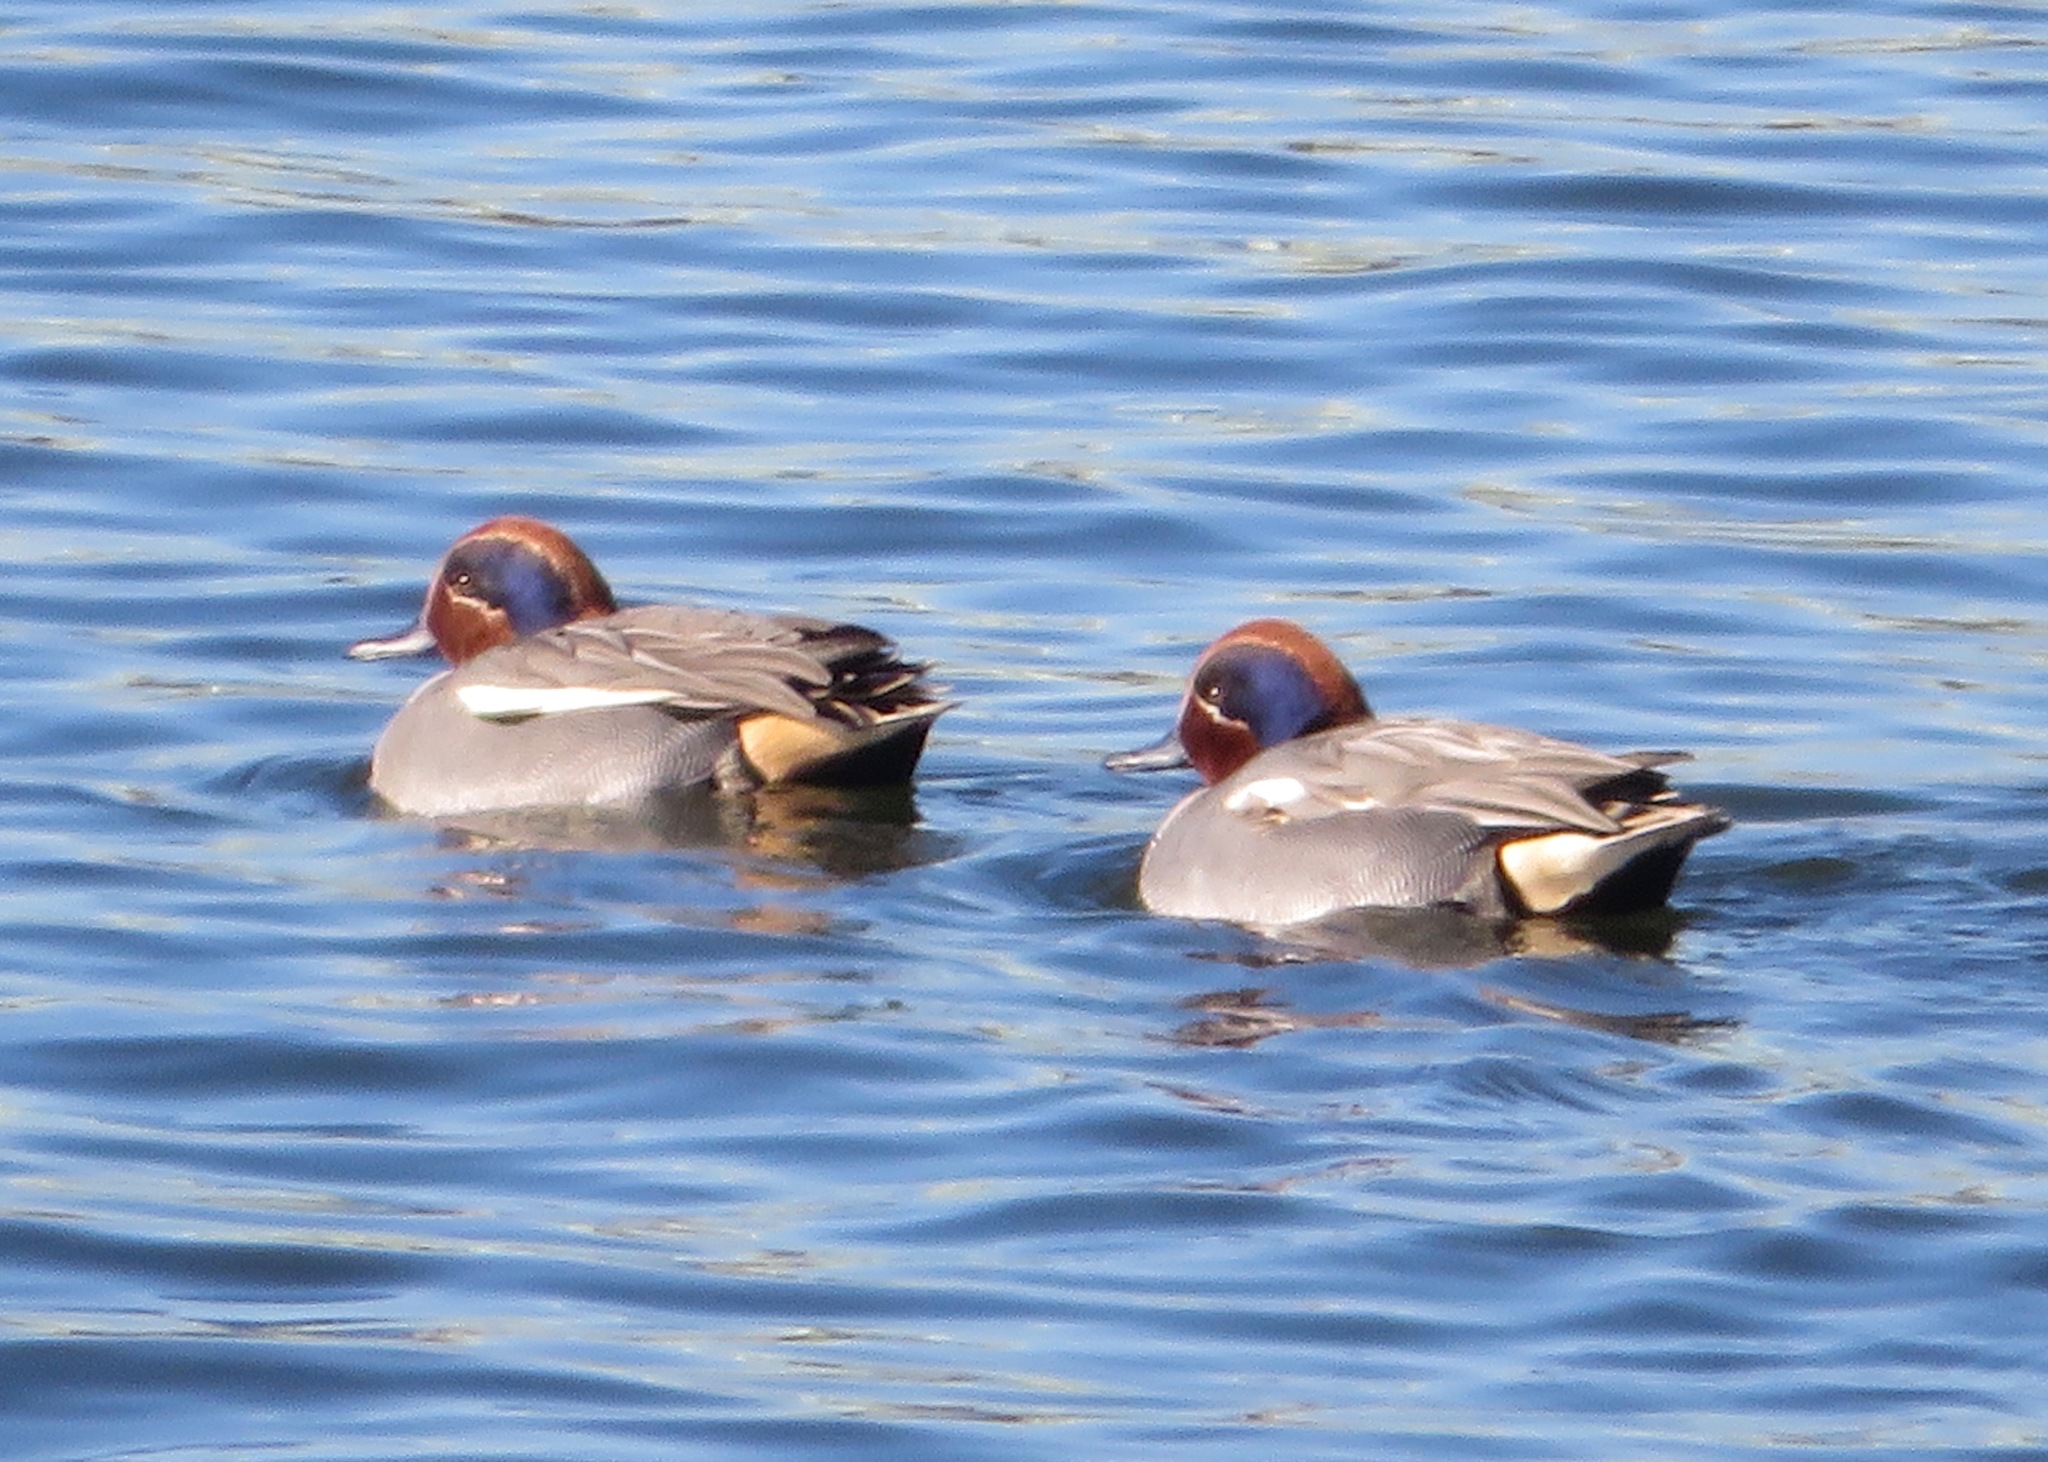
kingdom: Animalia
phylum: Chordata
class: Aves
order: Anseriformes
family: Anatidae
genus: Anas
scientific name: Anas crecca
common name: Eurasian teal
